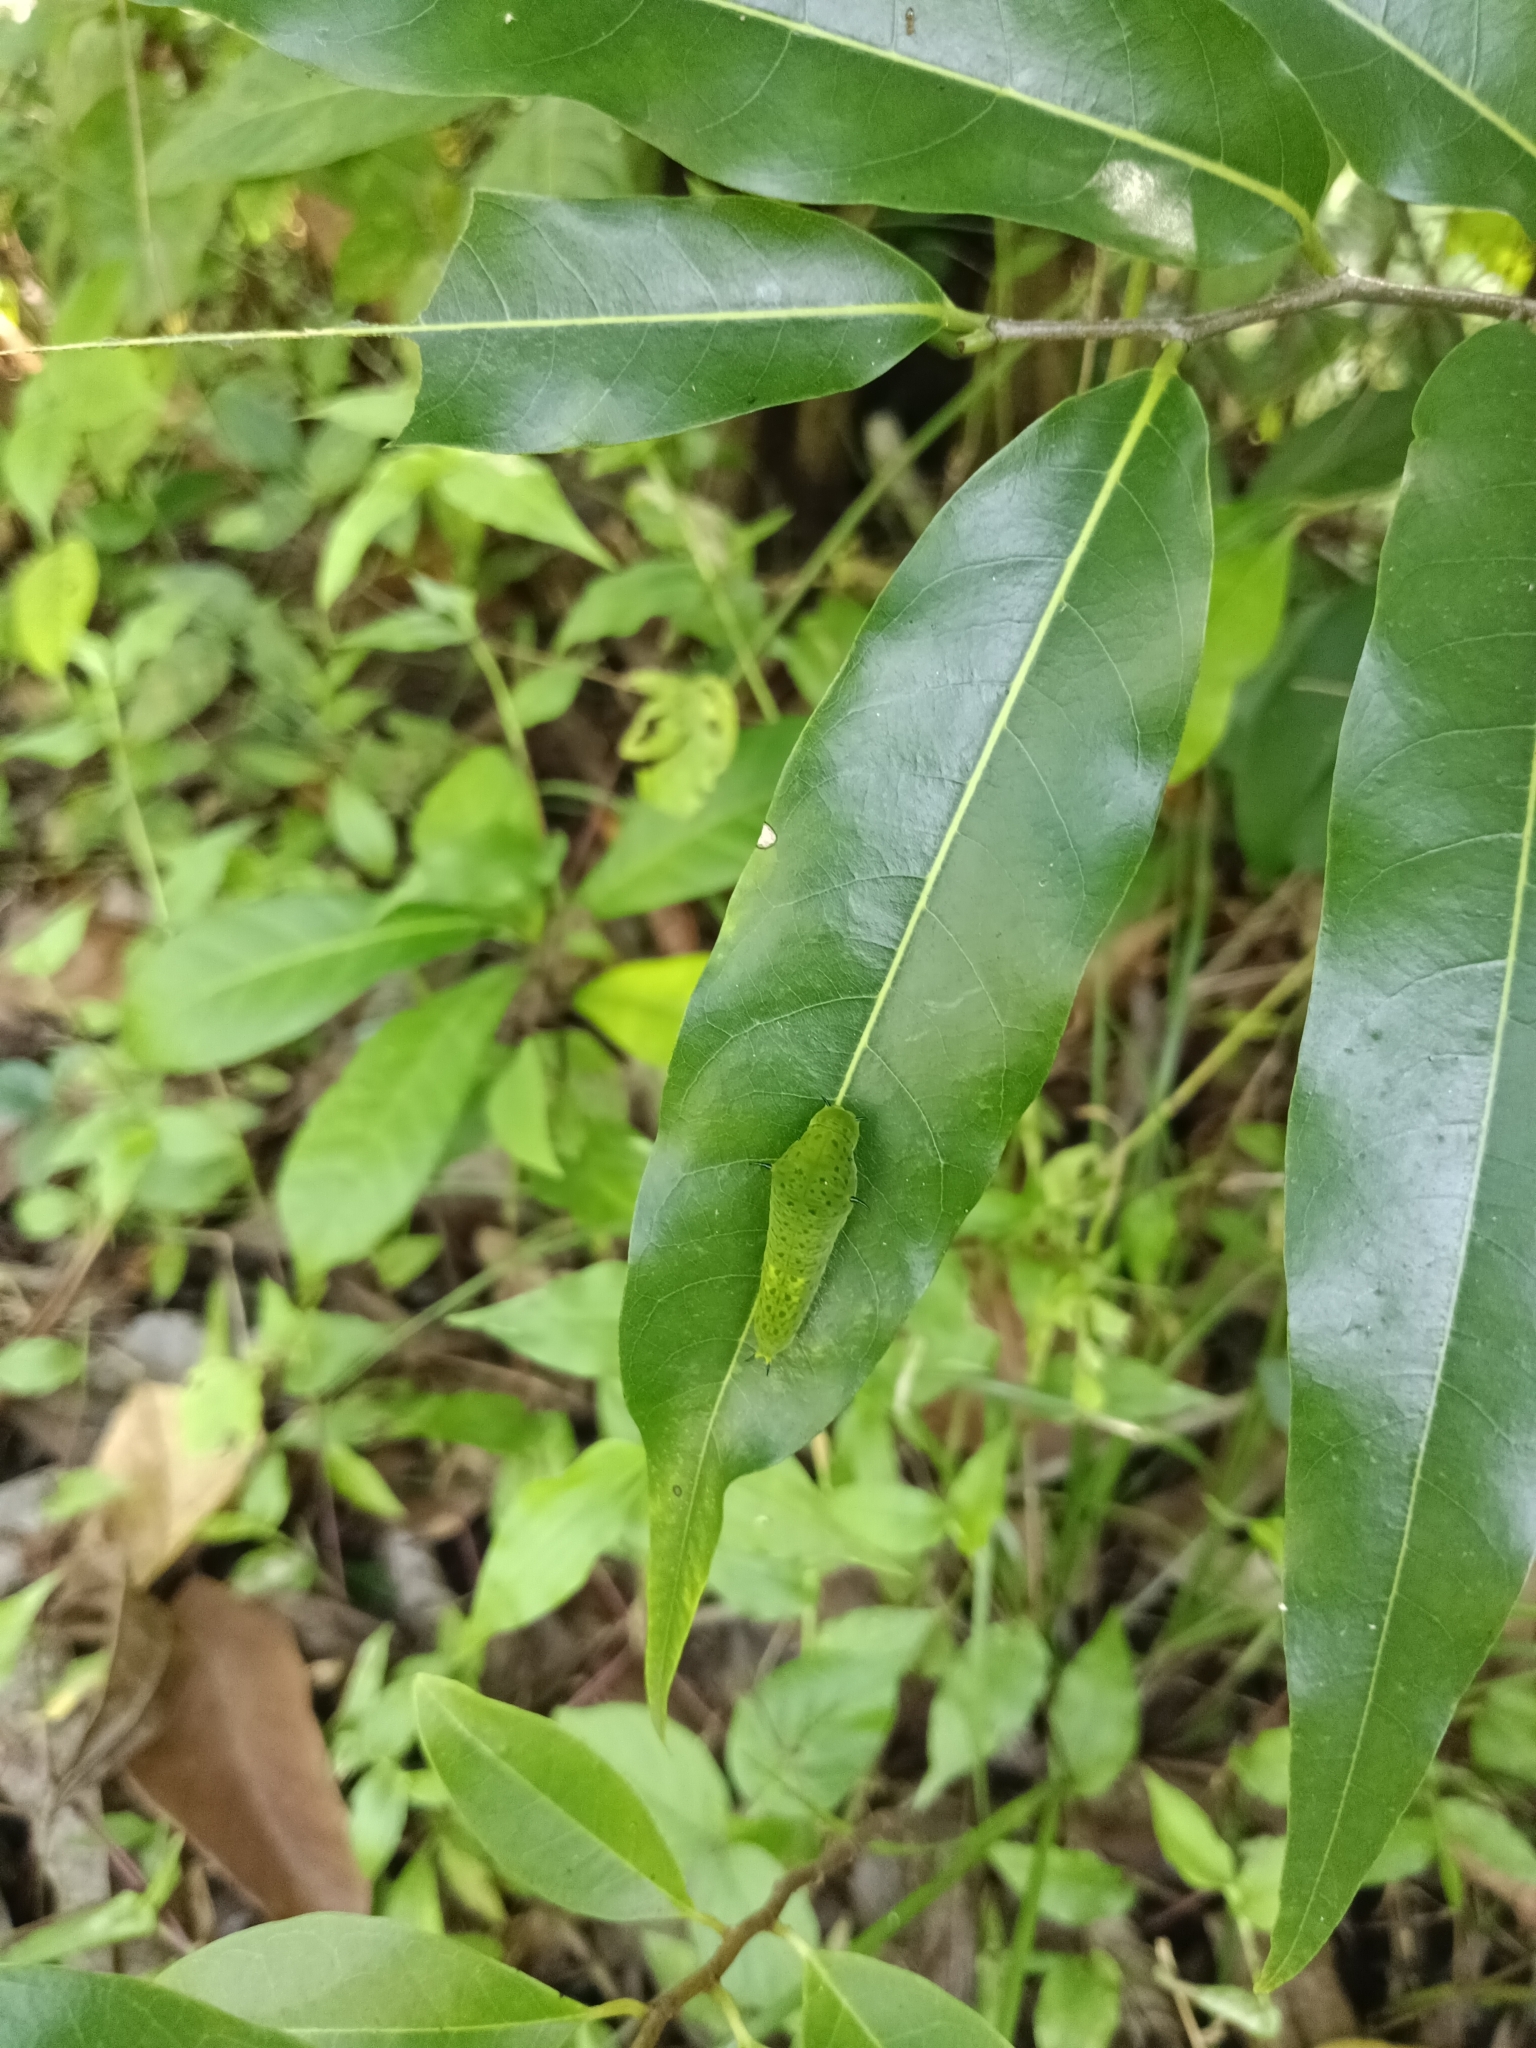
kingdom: Animalia
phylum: Arthropoda
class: Insecta
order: Lepidoptera
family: Papilionidae
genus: Graphium
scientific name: Graphium agamemnon
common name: Tailed jay
